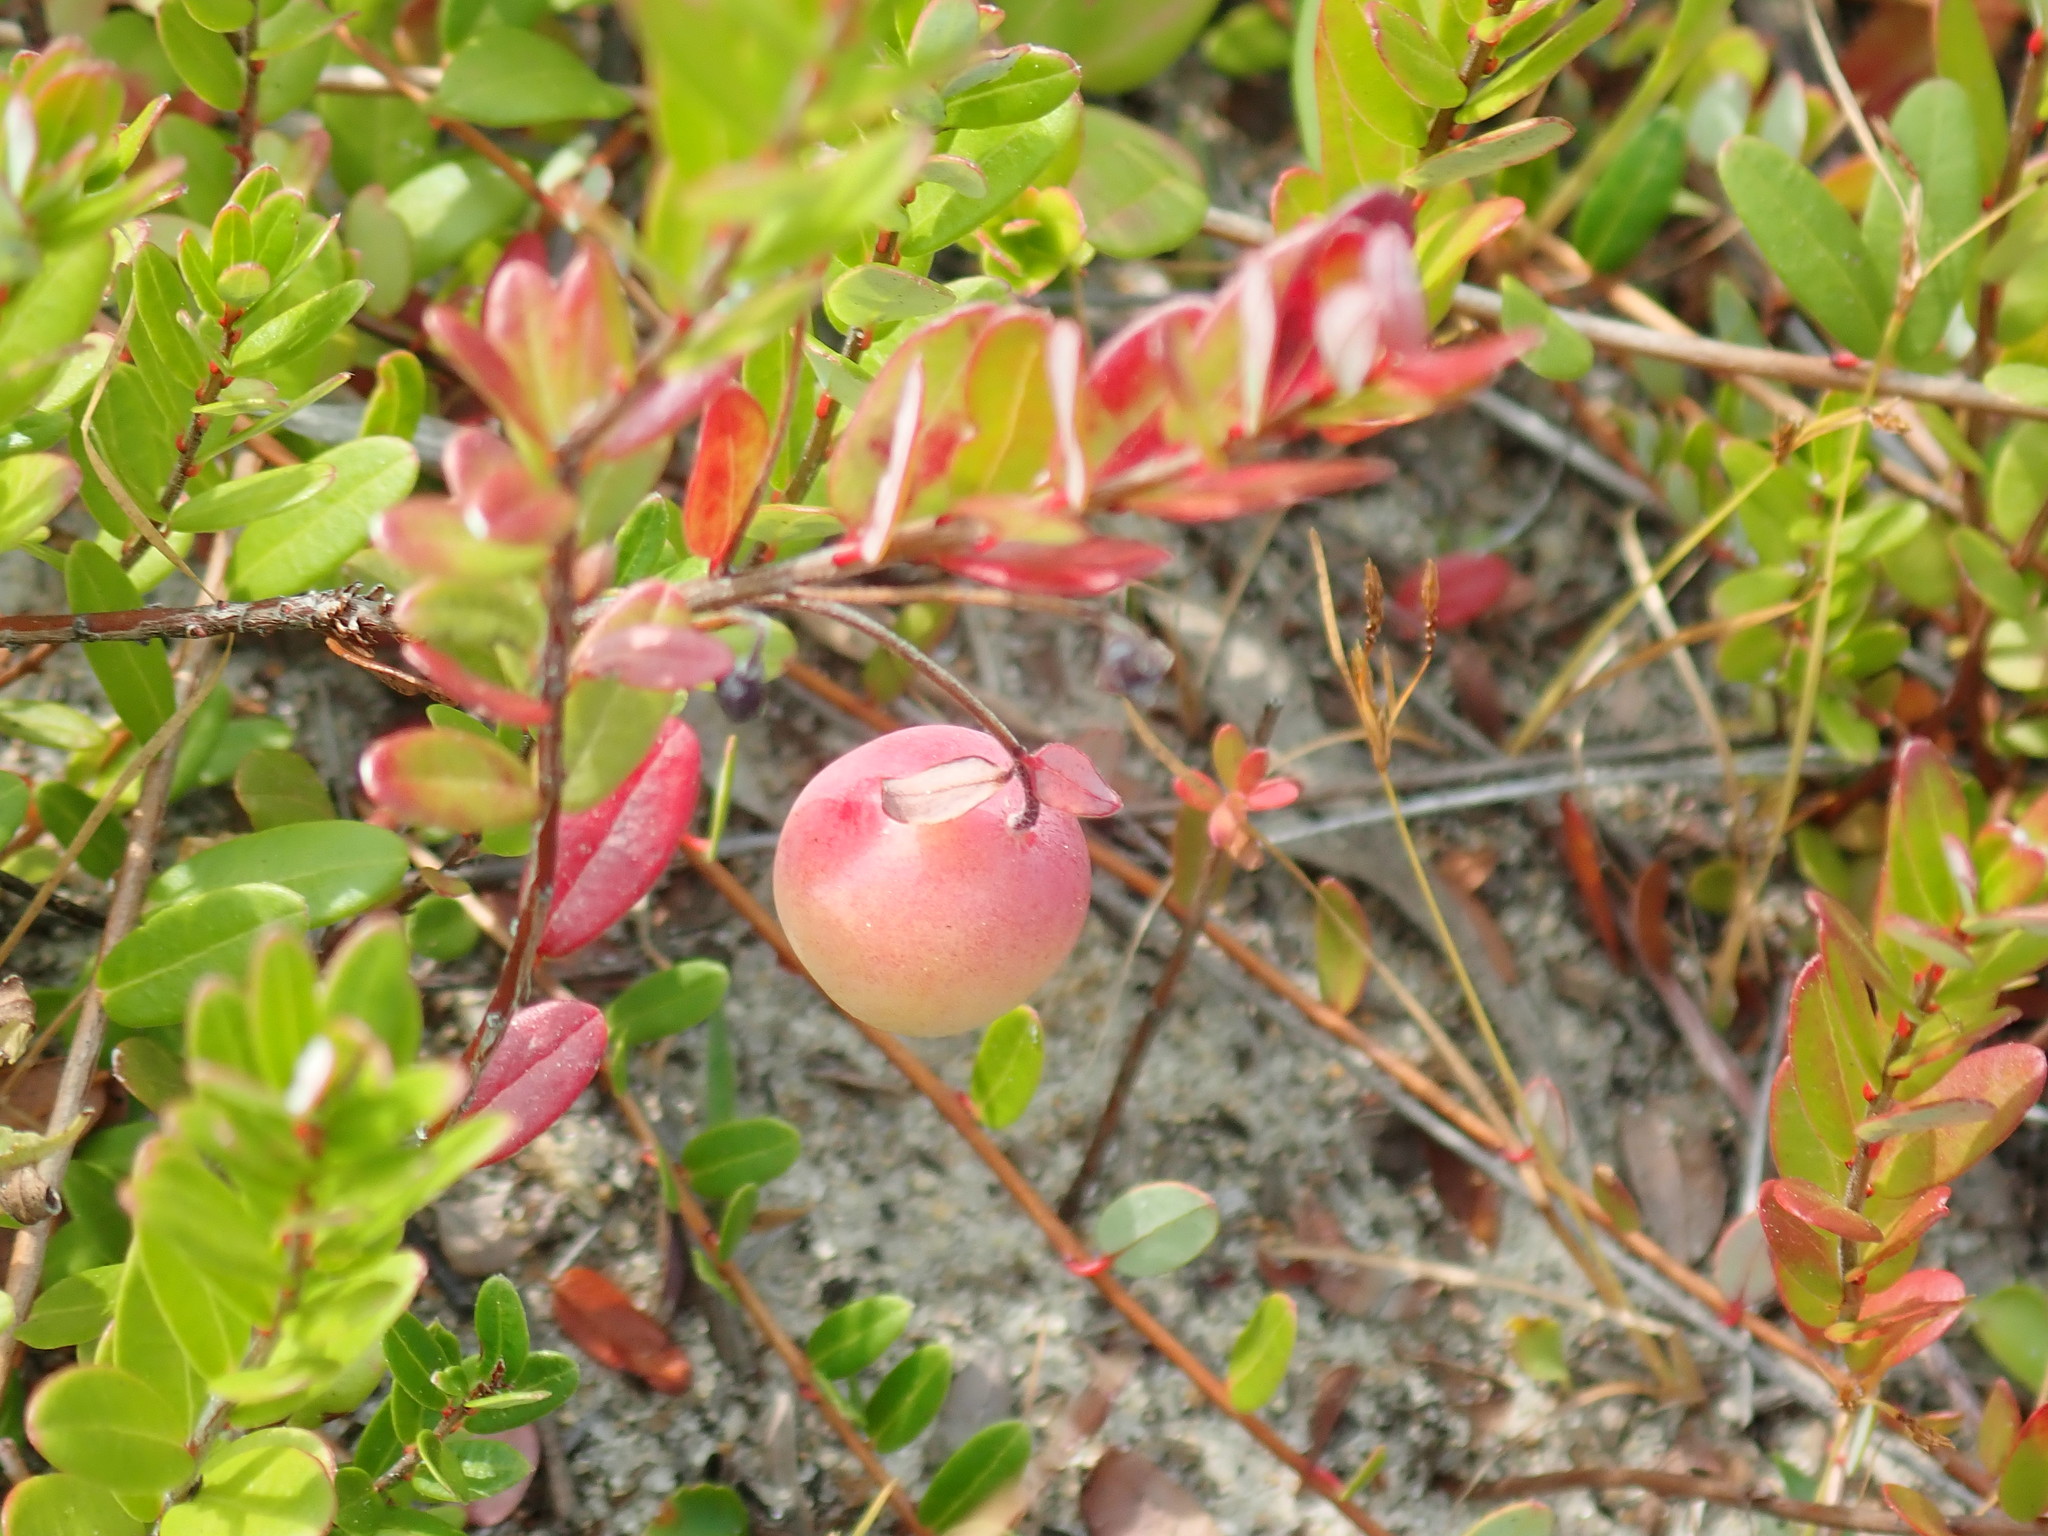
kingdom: Plantae
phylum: Tracheophyta
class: Magnoliopsida
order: Ericales
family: Ericaceae
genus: Vaccinium
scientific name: Vaccinium macrocarpon
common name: American cranberry
